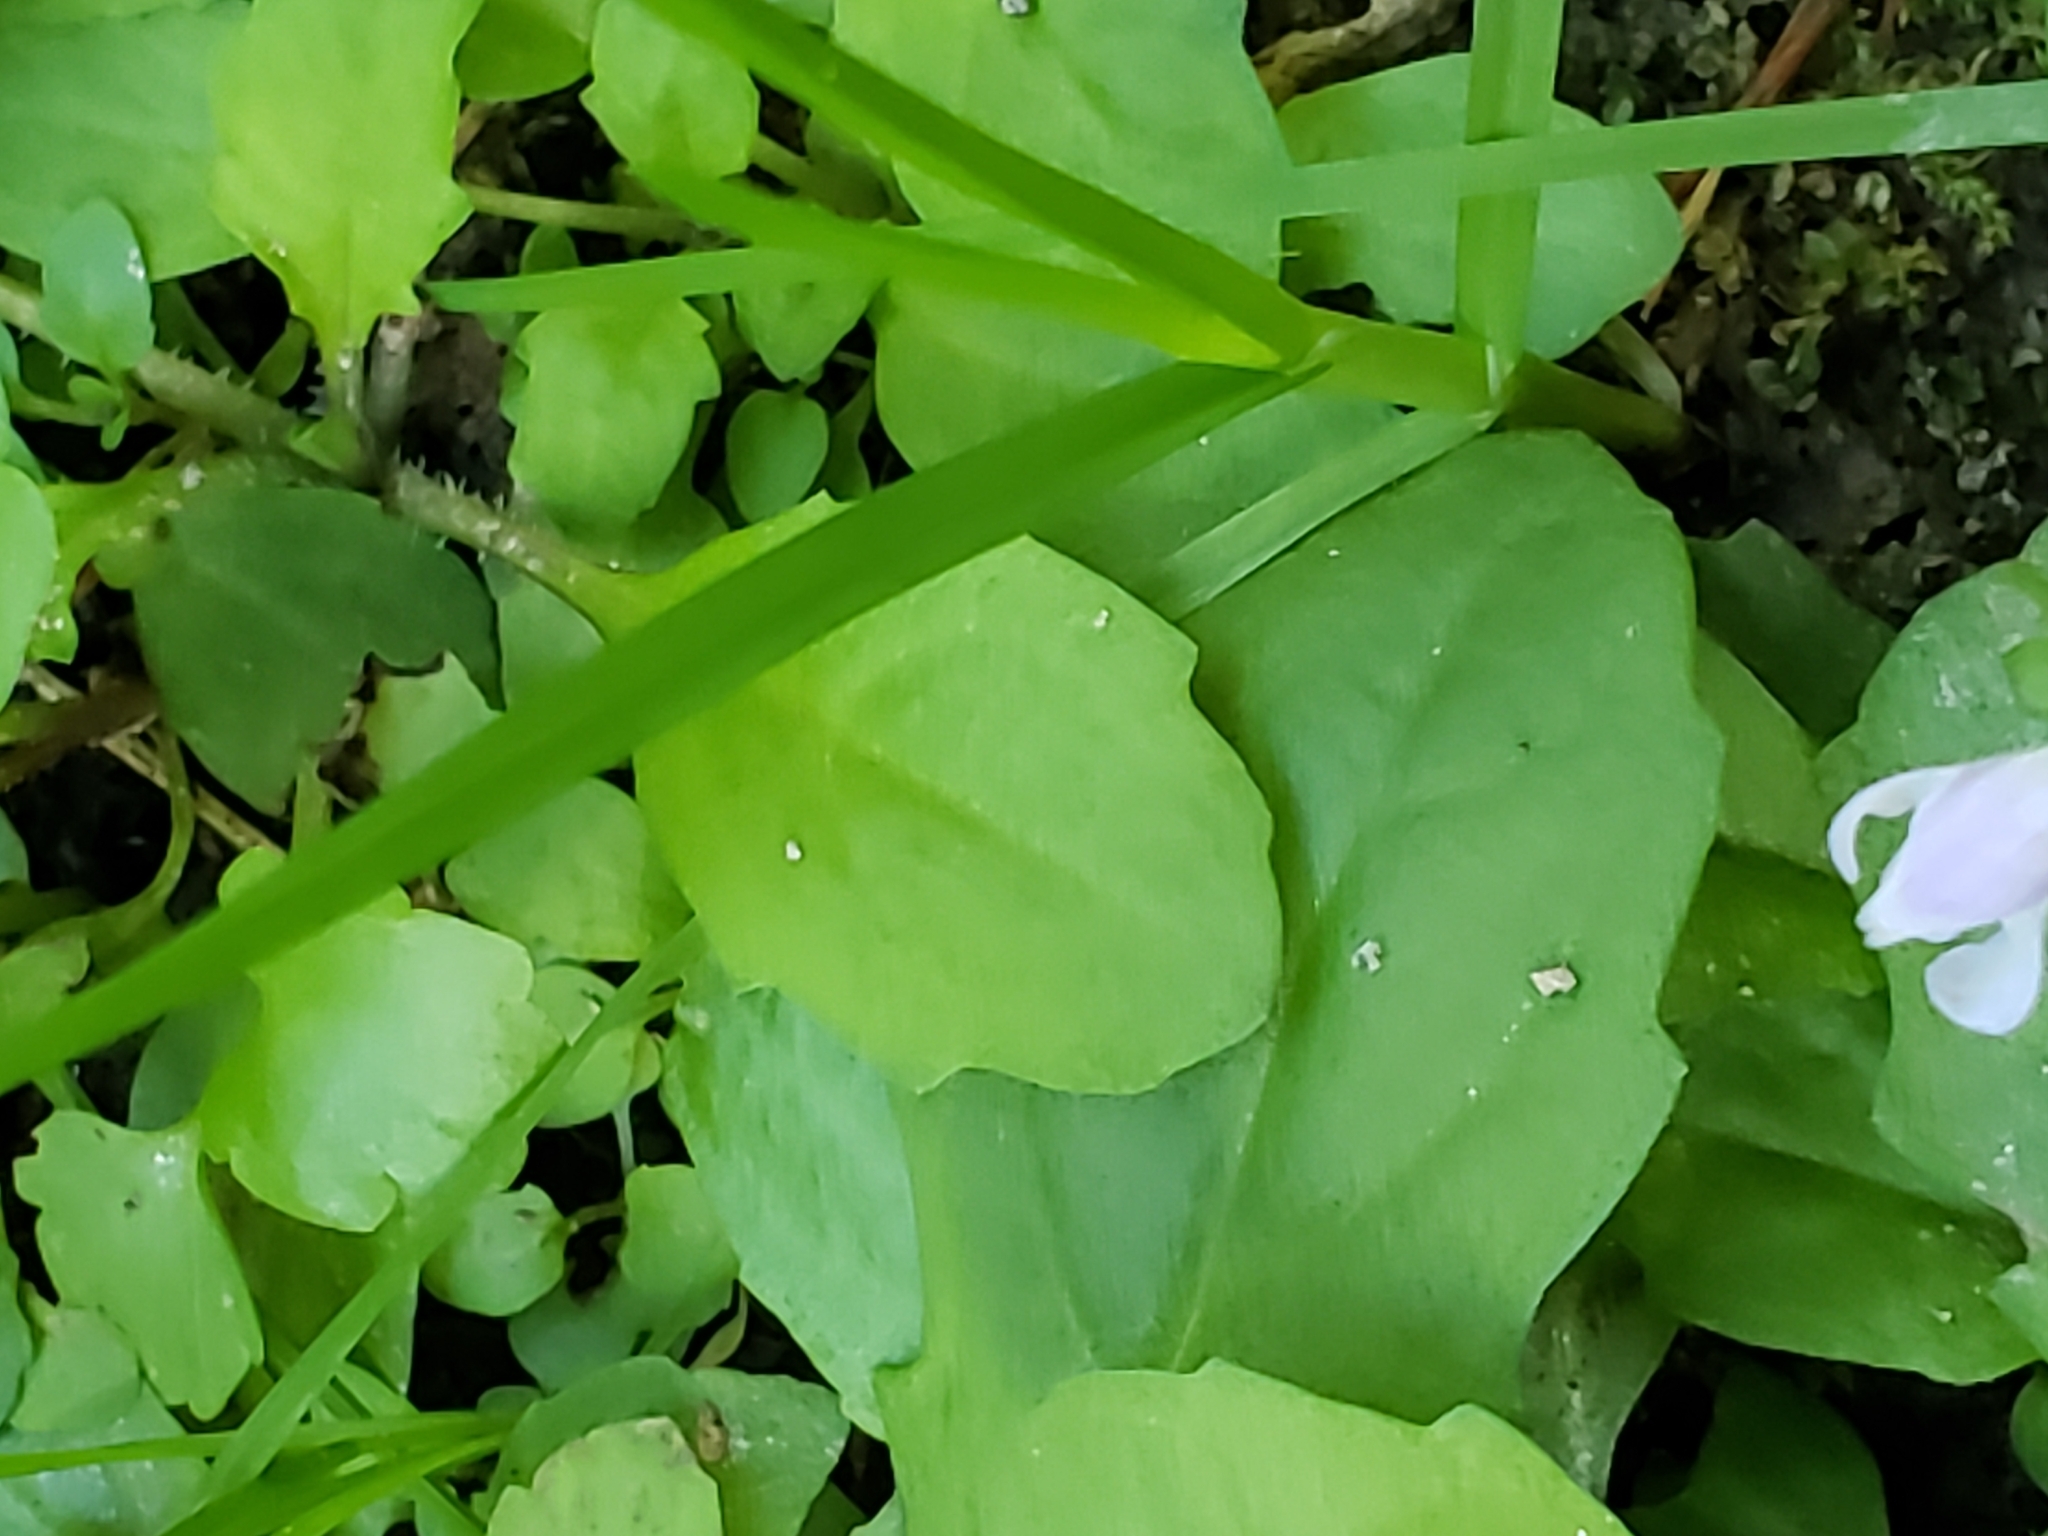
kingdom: Plantae
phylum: Tracheophyta
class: Magnoliopsida
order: Lamiales
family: Mazaceae
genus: Mazus
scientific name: Mazus pumilus
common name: Japanese mazus
